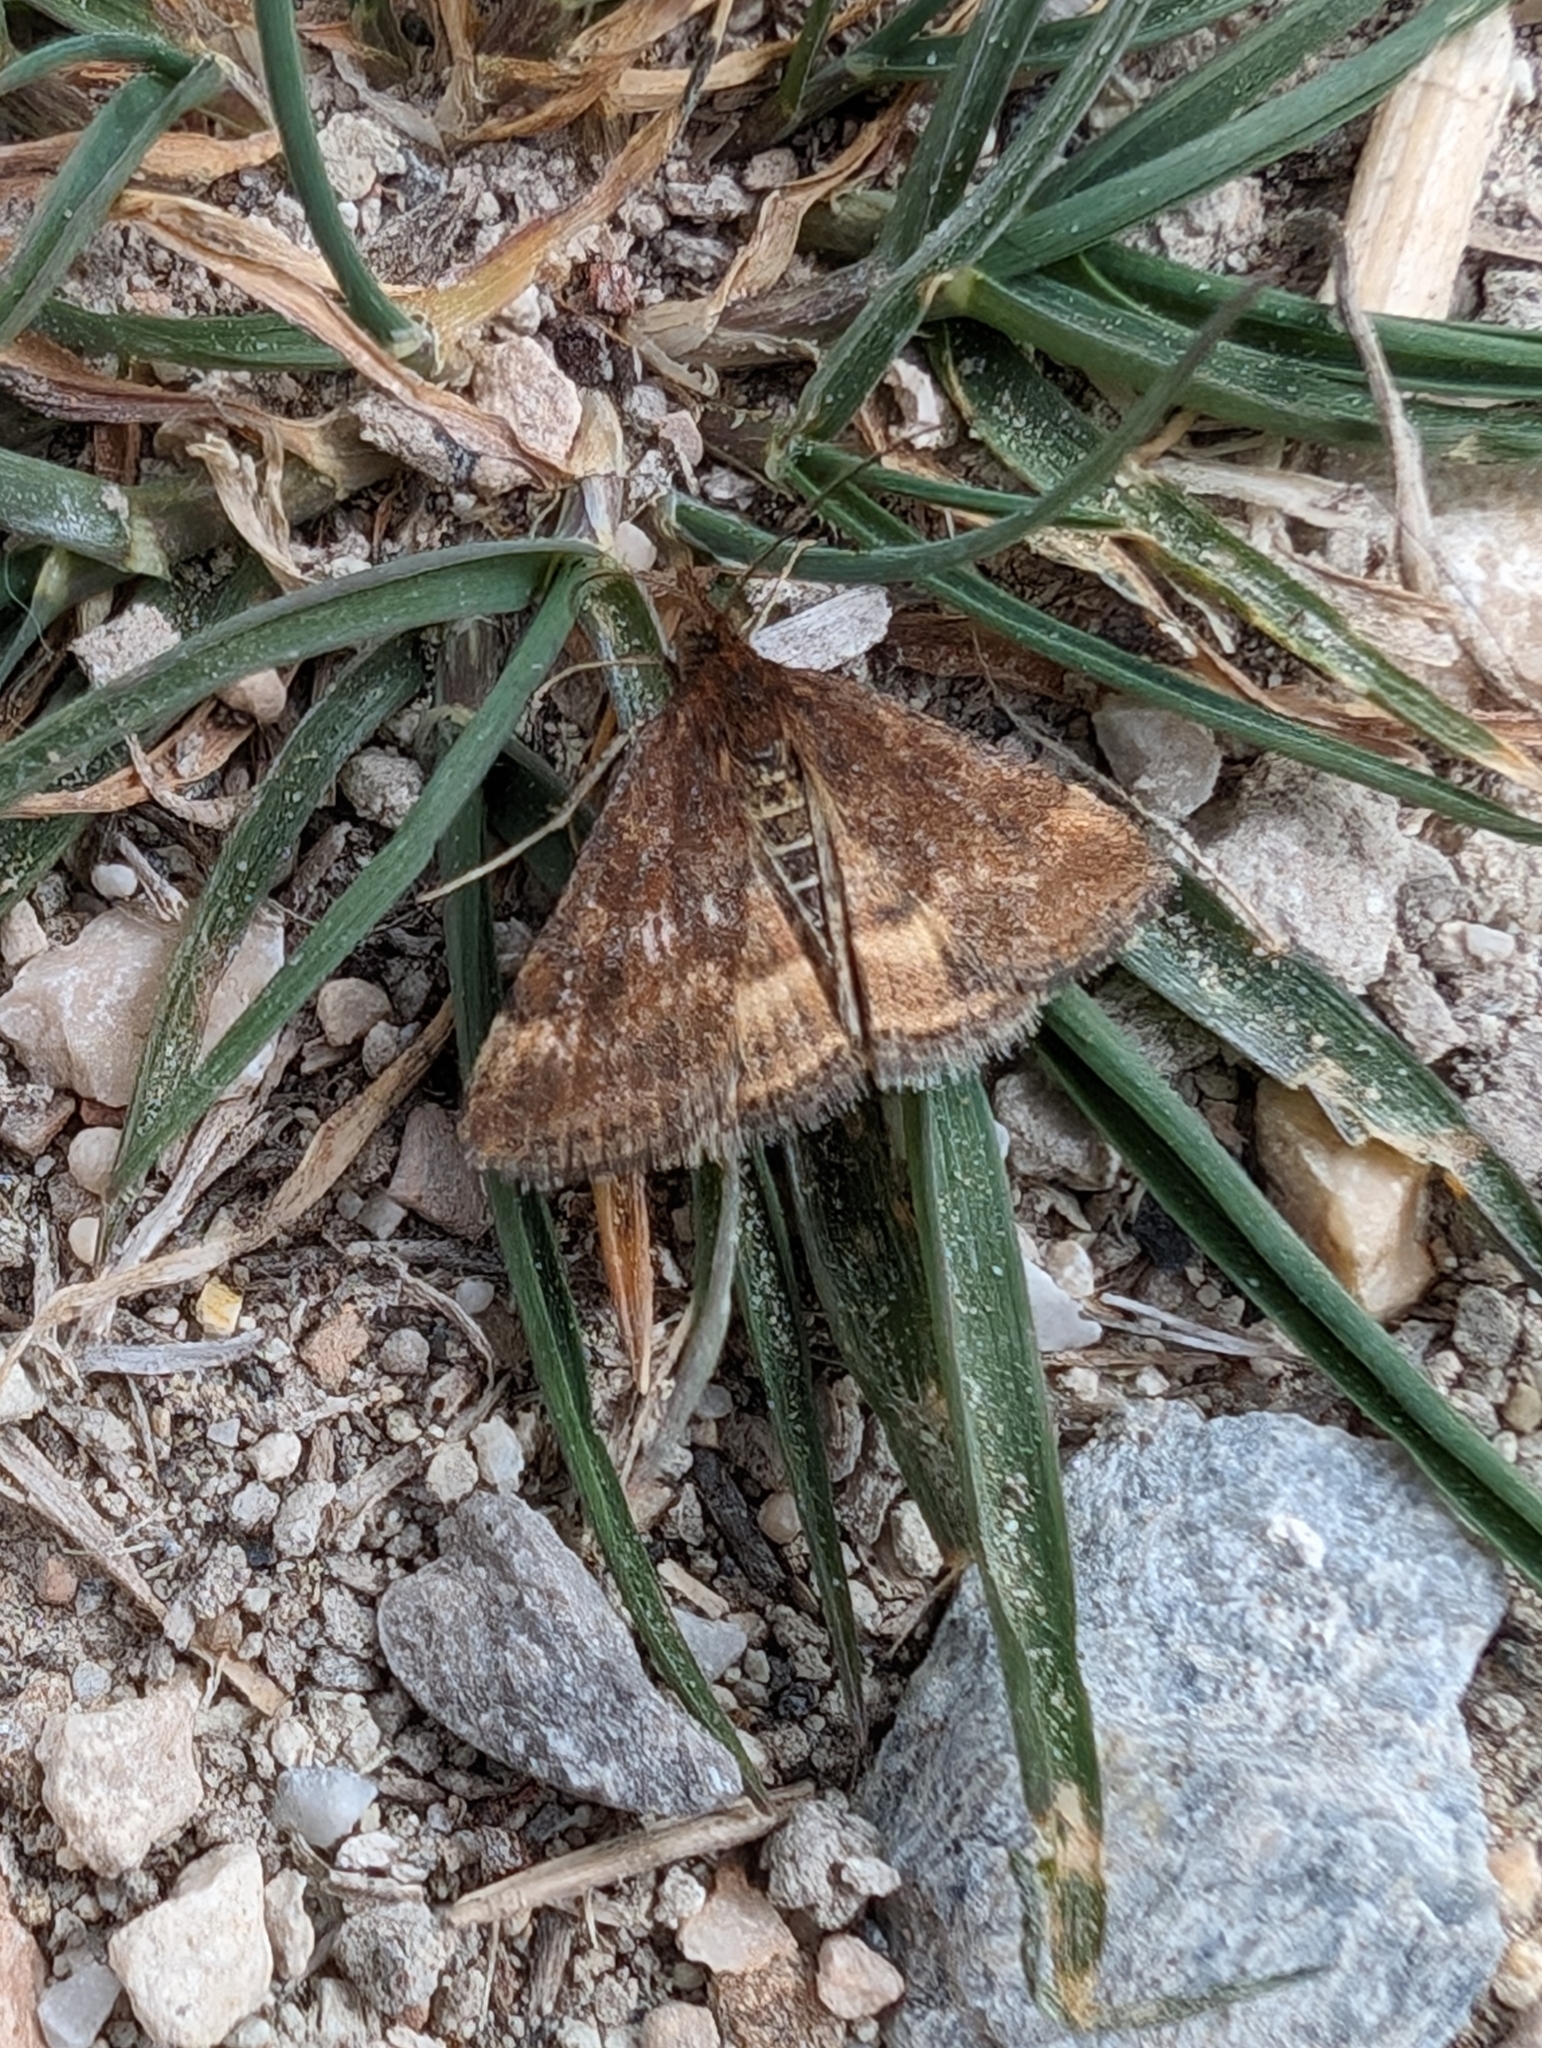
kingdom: Animalia
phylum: Arthropoda
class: Insecta
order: Lepidoptera
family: Crambidae
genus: Pyrausta
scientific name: Pyrausta despicata
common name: Straw-barred pearl
